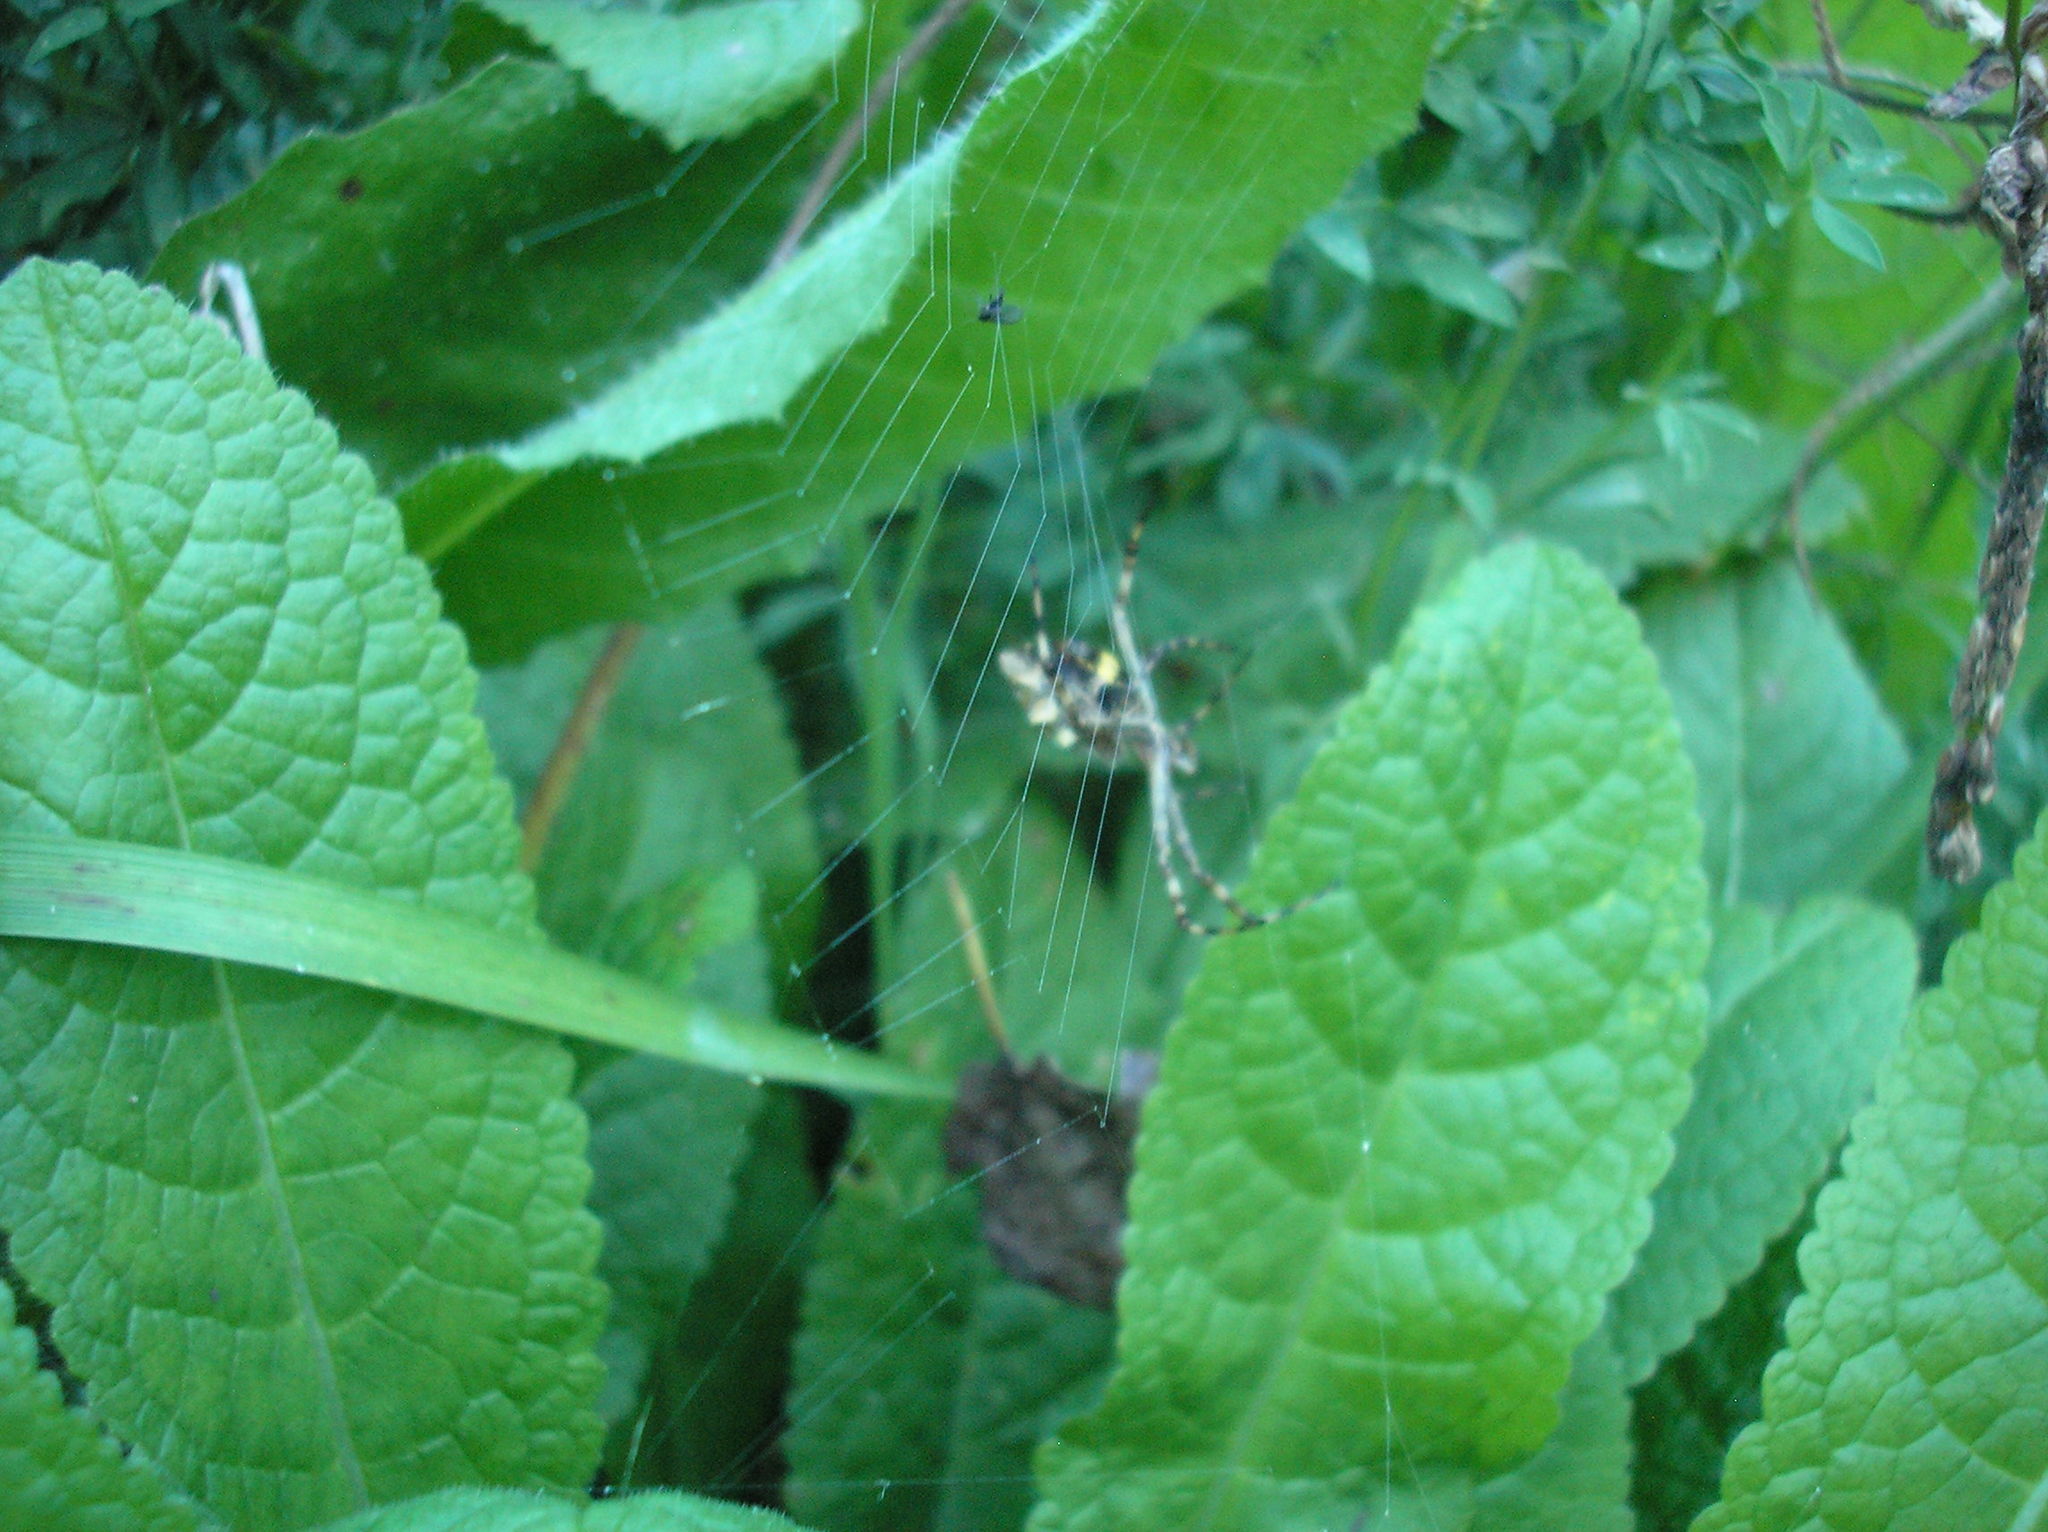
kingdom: Animalia
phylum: Arthropoda
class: Arachnida
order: Araneae
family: Araneidae
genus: Argiope
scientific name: Argiope argentata
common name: Orb weavers
